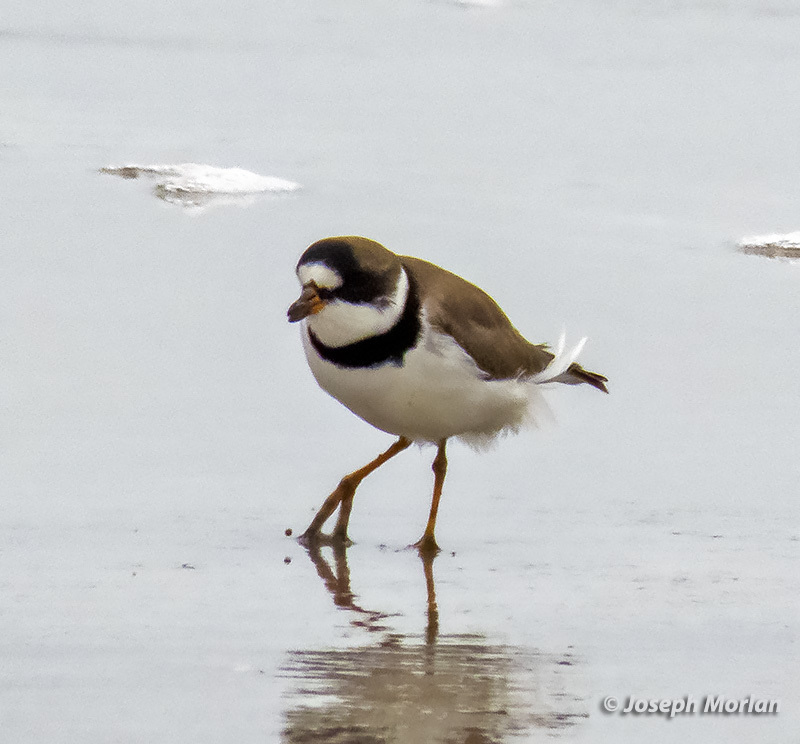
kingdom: Animalia
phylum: Chordata
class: Aves
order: Charadriiformes
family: Charadriidae
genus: Charadrius
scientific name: Charadrius semipalmatus
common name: Semipalmated plover
